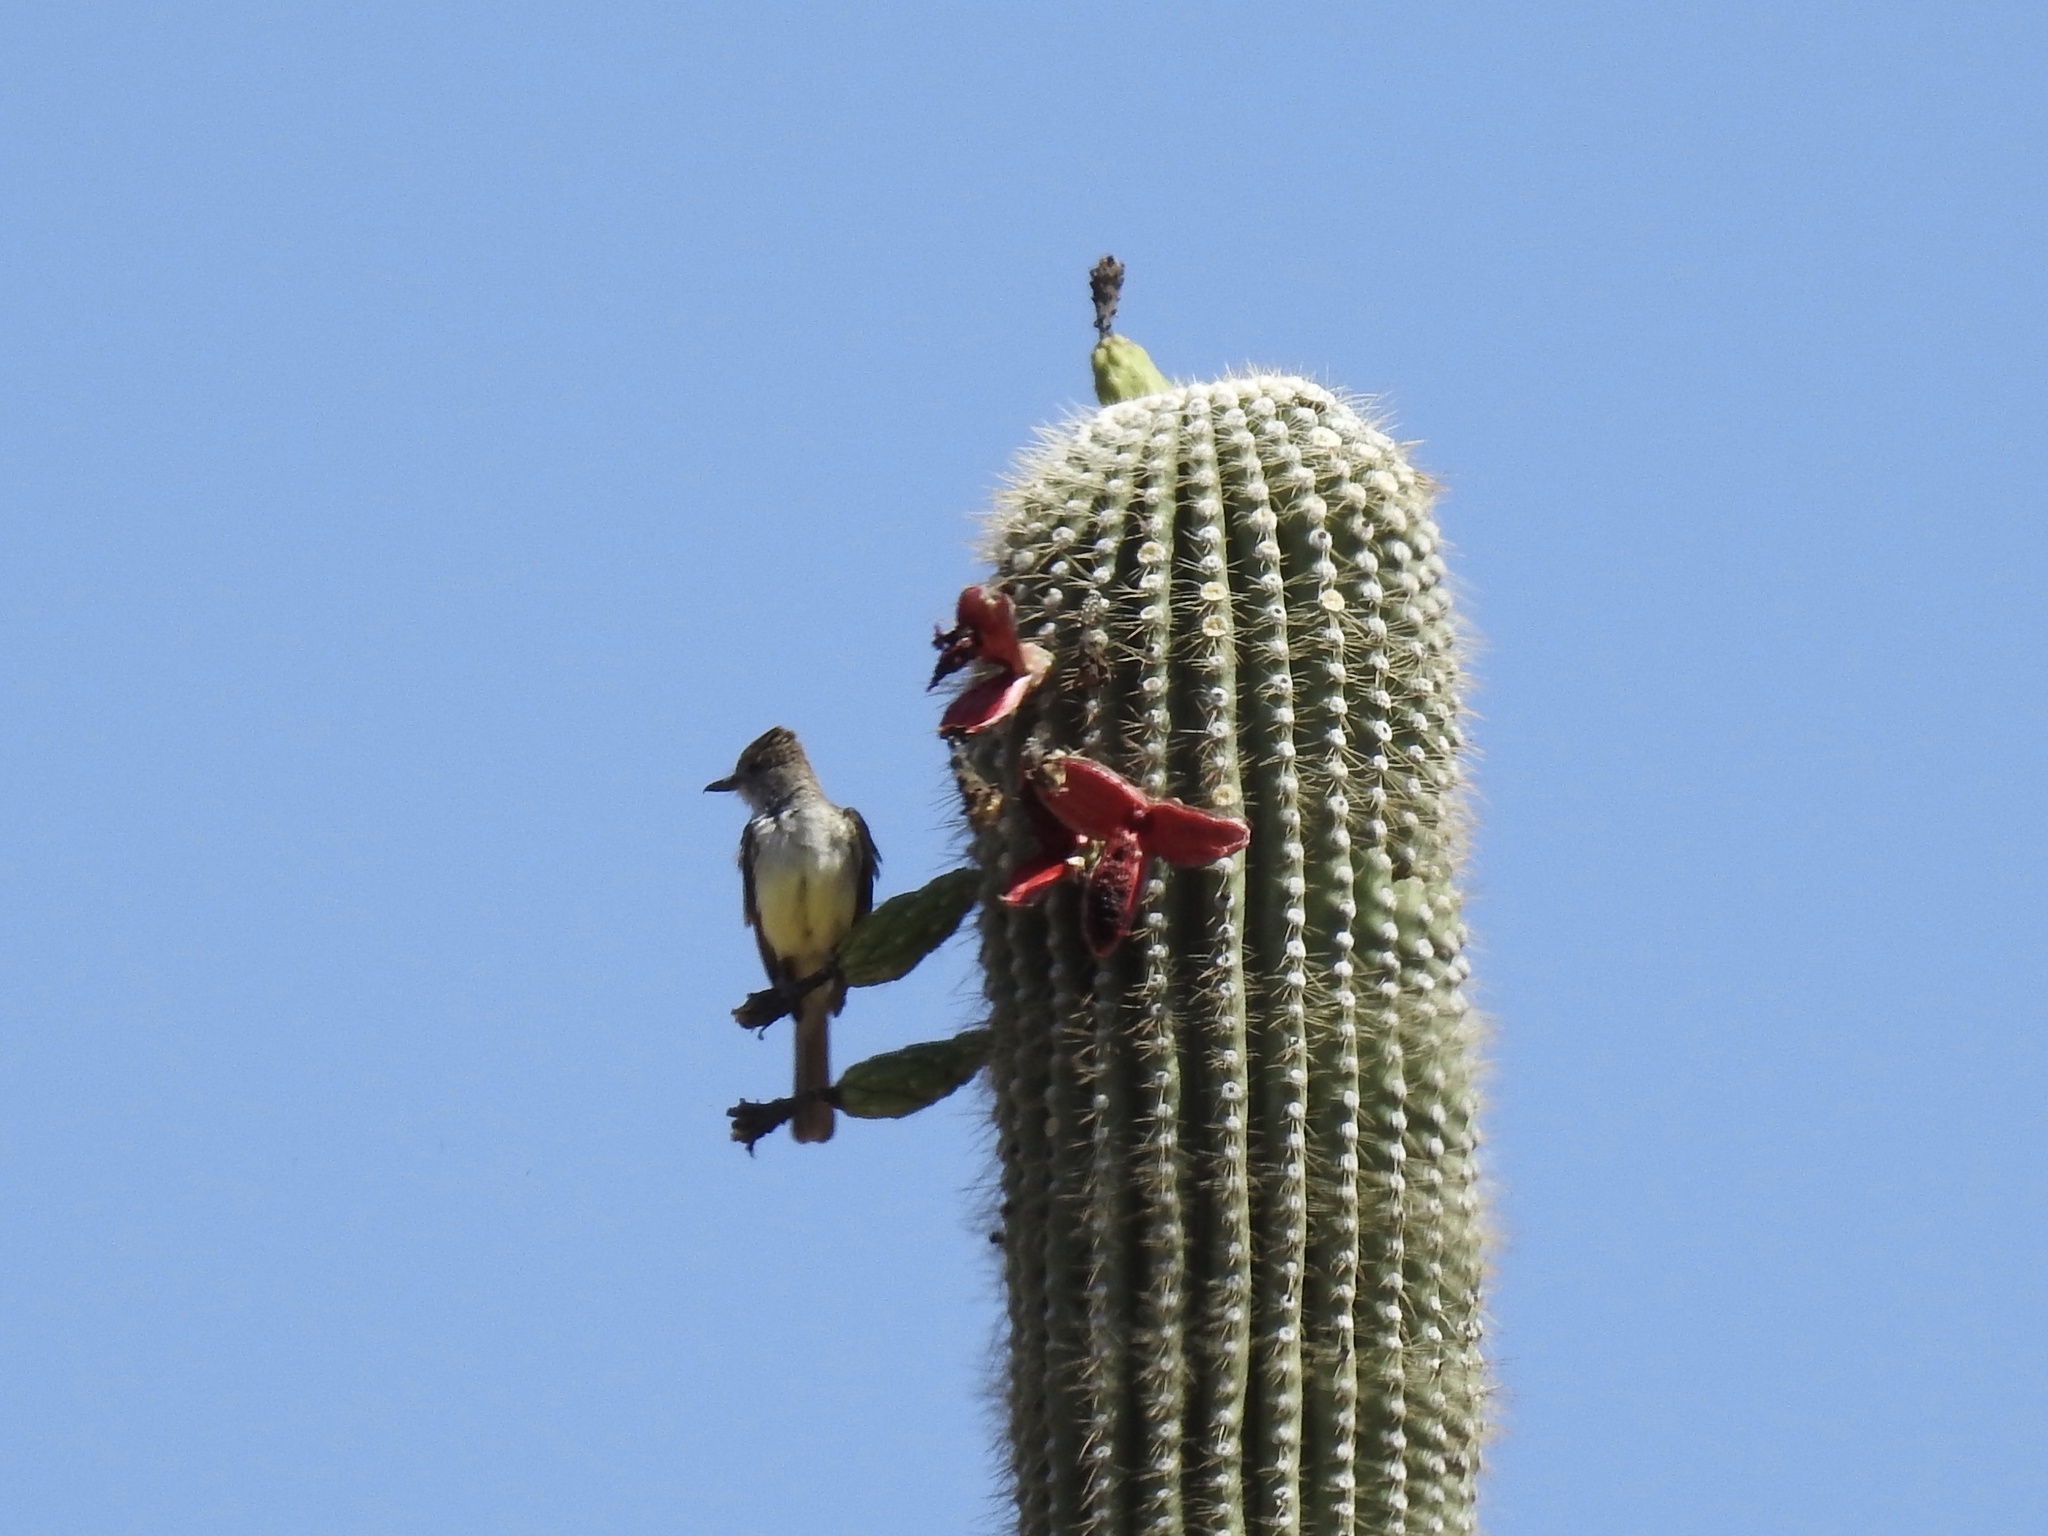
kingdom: Animalia
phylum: Chordata
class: Aves
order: Passeriformes
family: Tyrannidae
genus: Myiarchus
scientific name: Myiarchus cinerascens
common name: Ash-throated flycatcher
